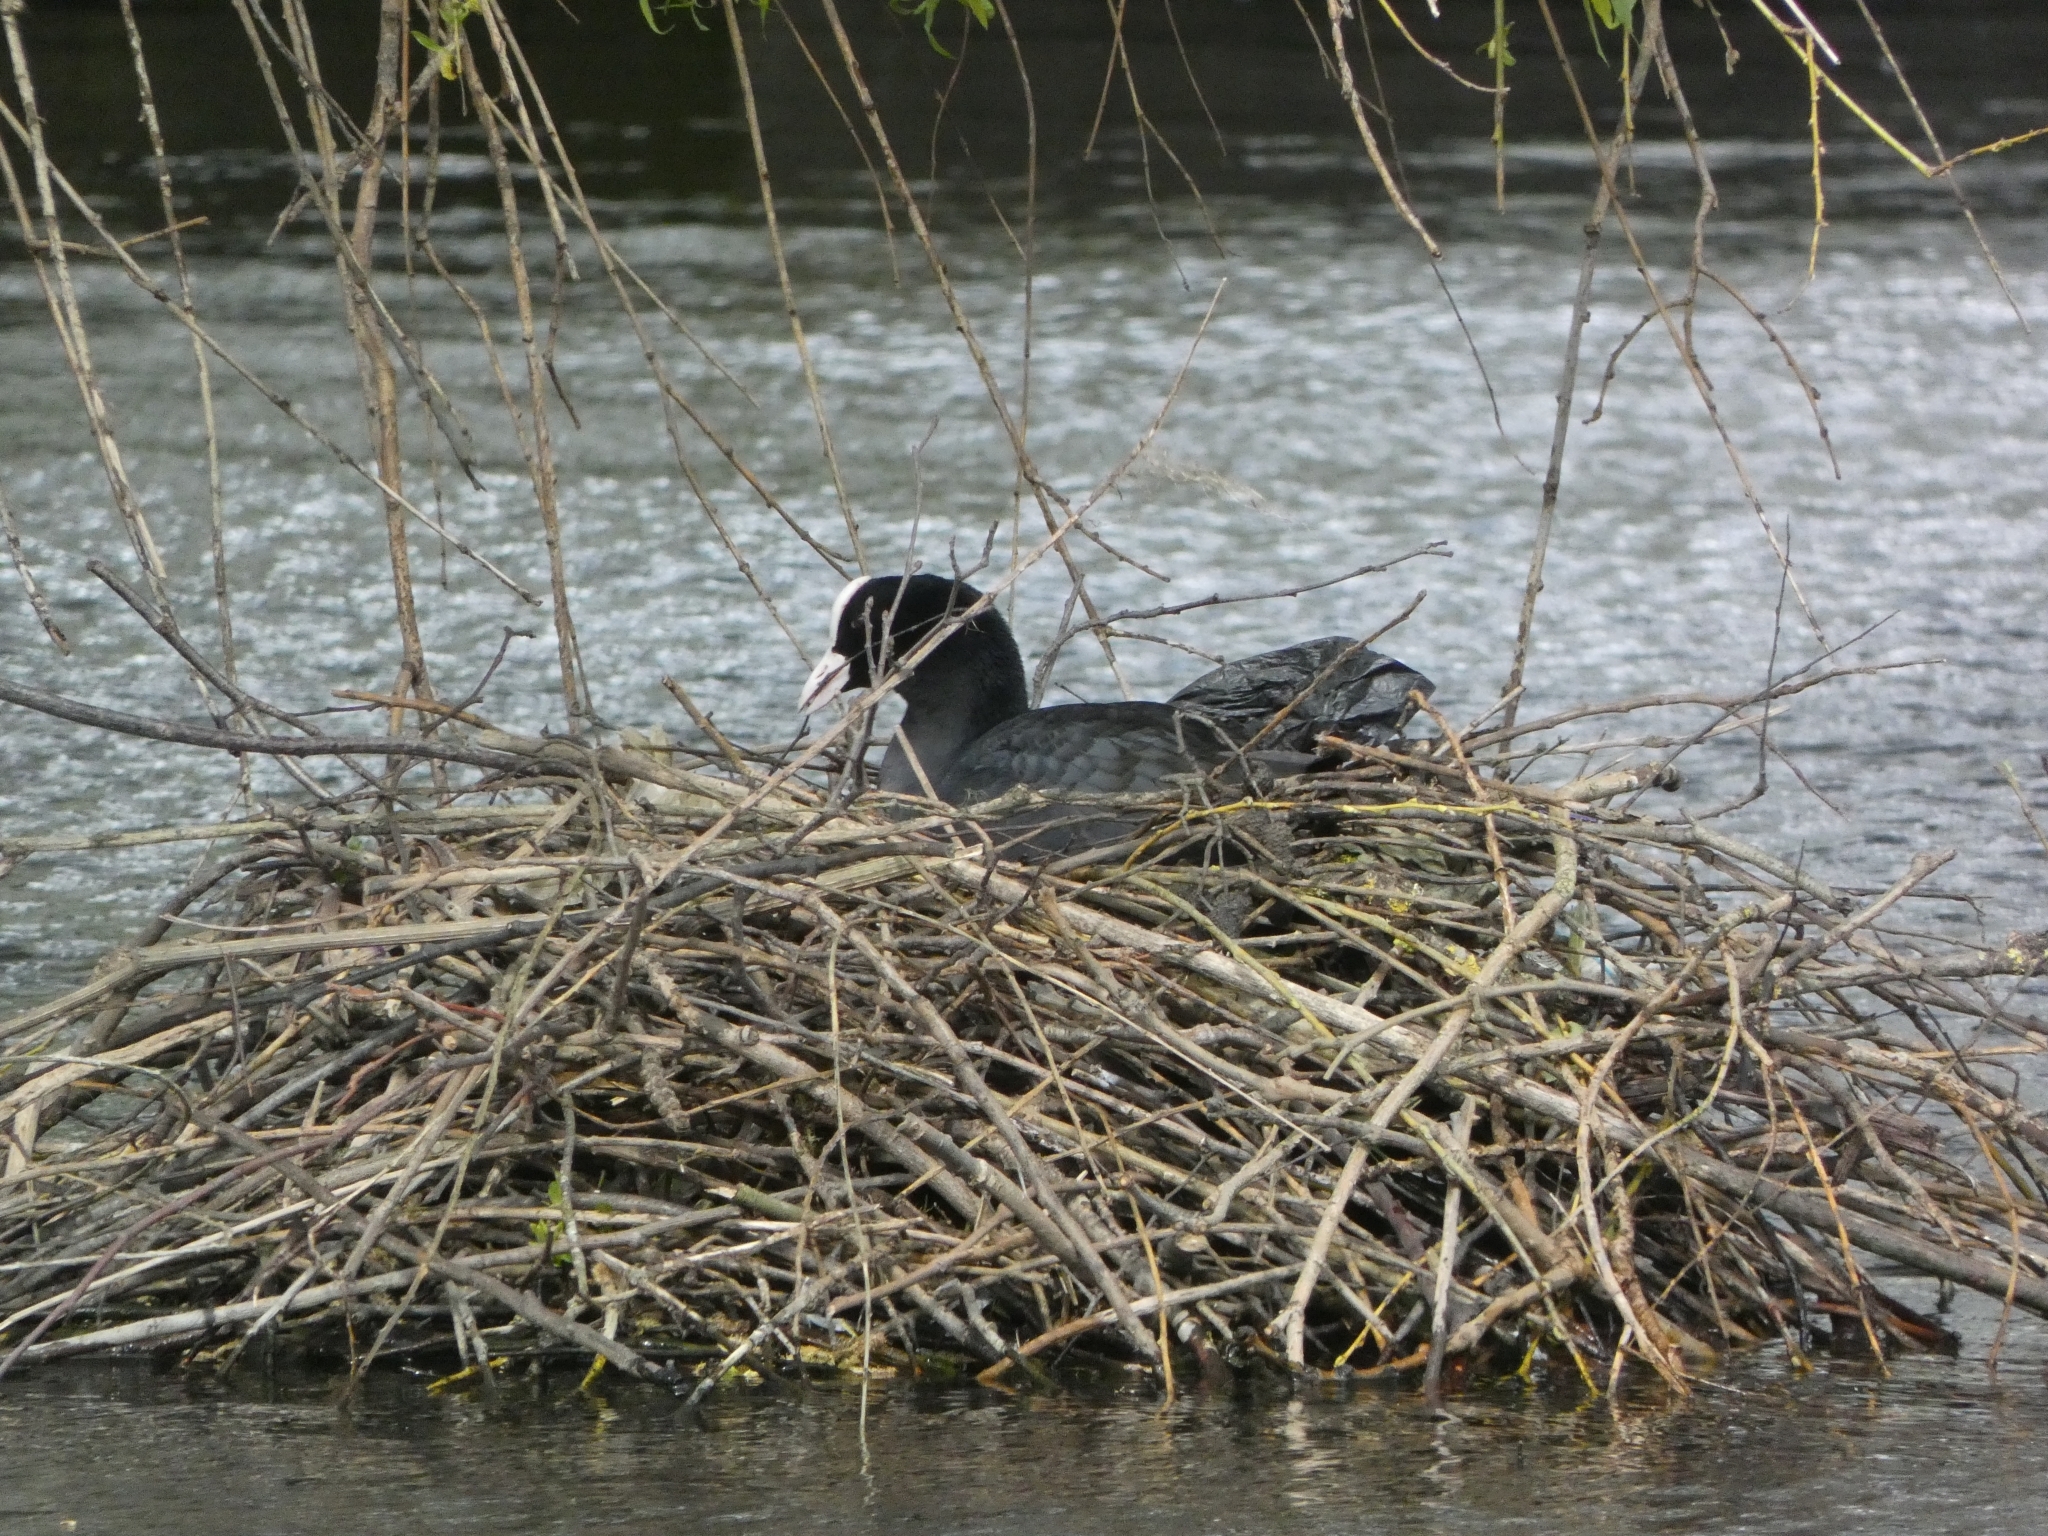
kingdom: Animalia
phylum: Chordata
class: Aves
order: Gruiformes
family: Rallidae
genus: Fulica
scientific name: Fulica atra
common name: Eurasian coot
